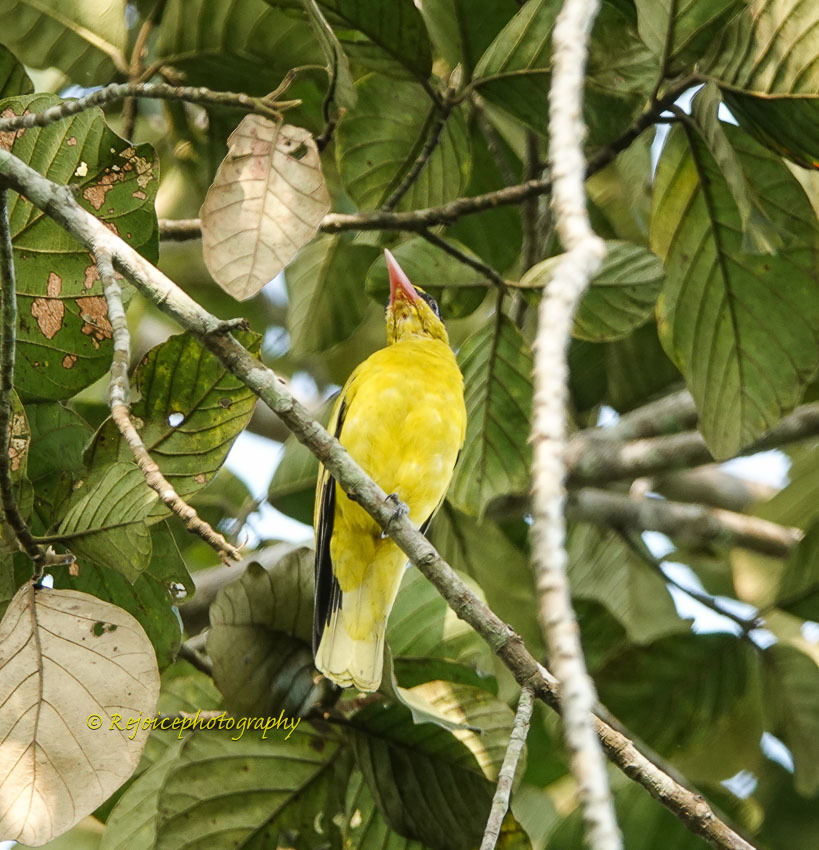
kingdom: Animalia
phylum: Chordata
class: Aves
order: Passeriformes
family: Oriolidae
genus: Oriolus
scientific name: Oriolus chinensis
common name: Black-naped oriole
